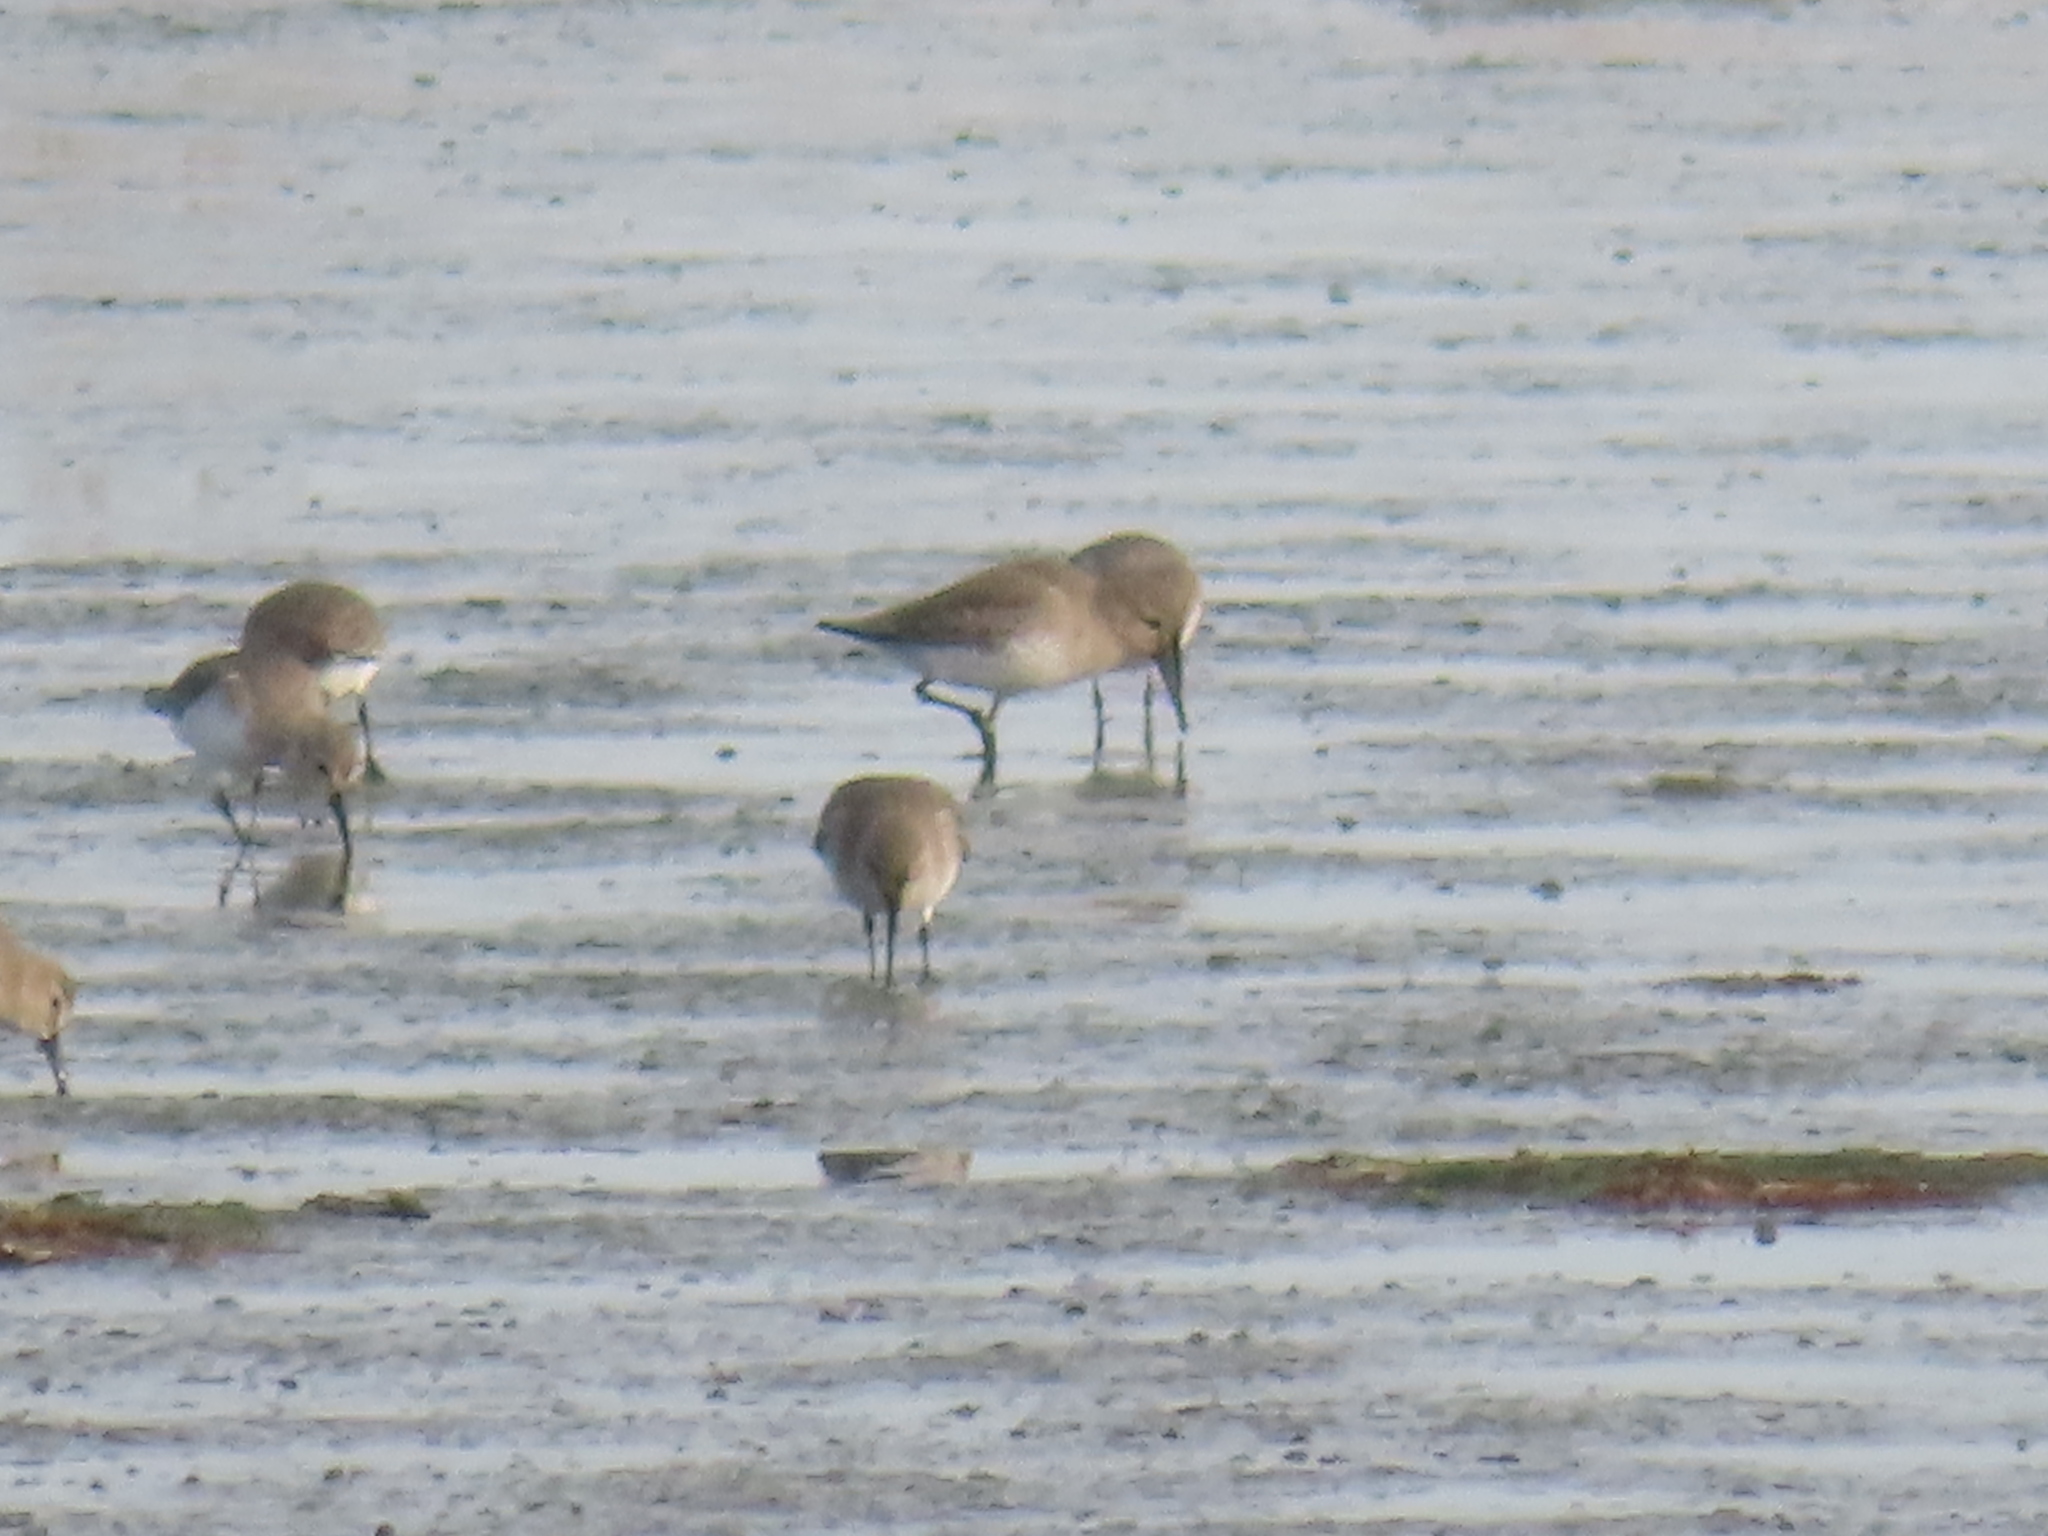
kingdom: Animalia
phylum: Chordata
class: Aves
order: Charadriiformes
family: Scolopacidae
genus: Calidris
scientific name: Calidris alpina
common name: Dunlin
